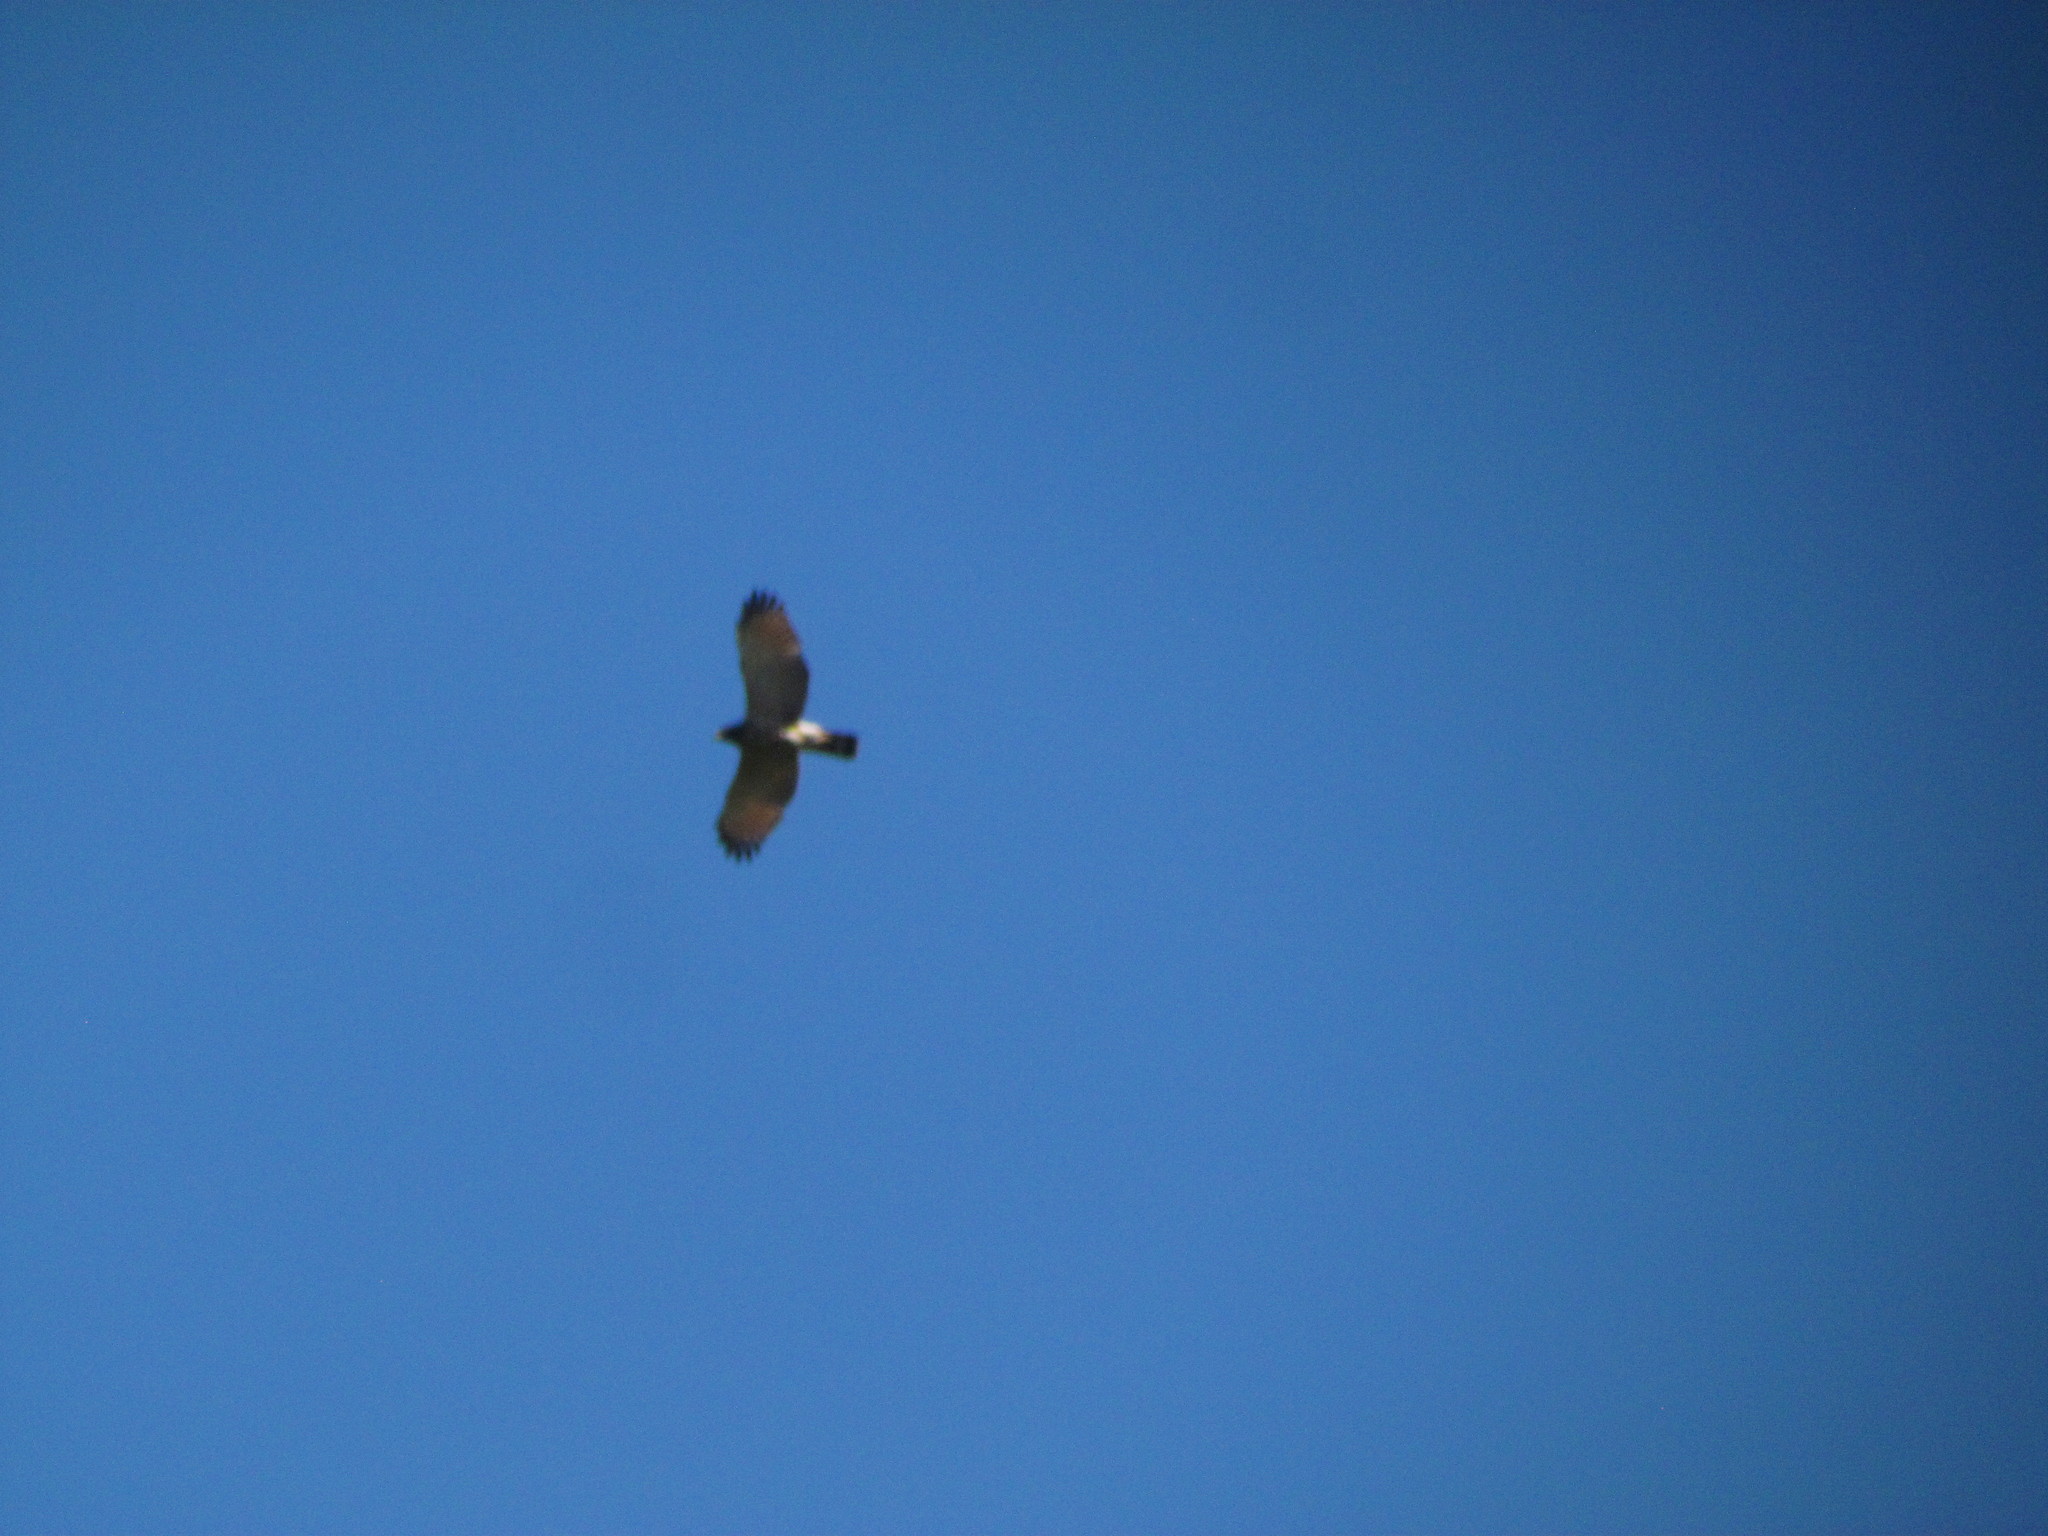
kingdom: Animalia
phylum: Chordata
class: Aves
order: Accipitriformes
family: Accipitridae
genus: Rupornis
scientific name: Rupornis magnirostris
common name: Roadside hawk
